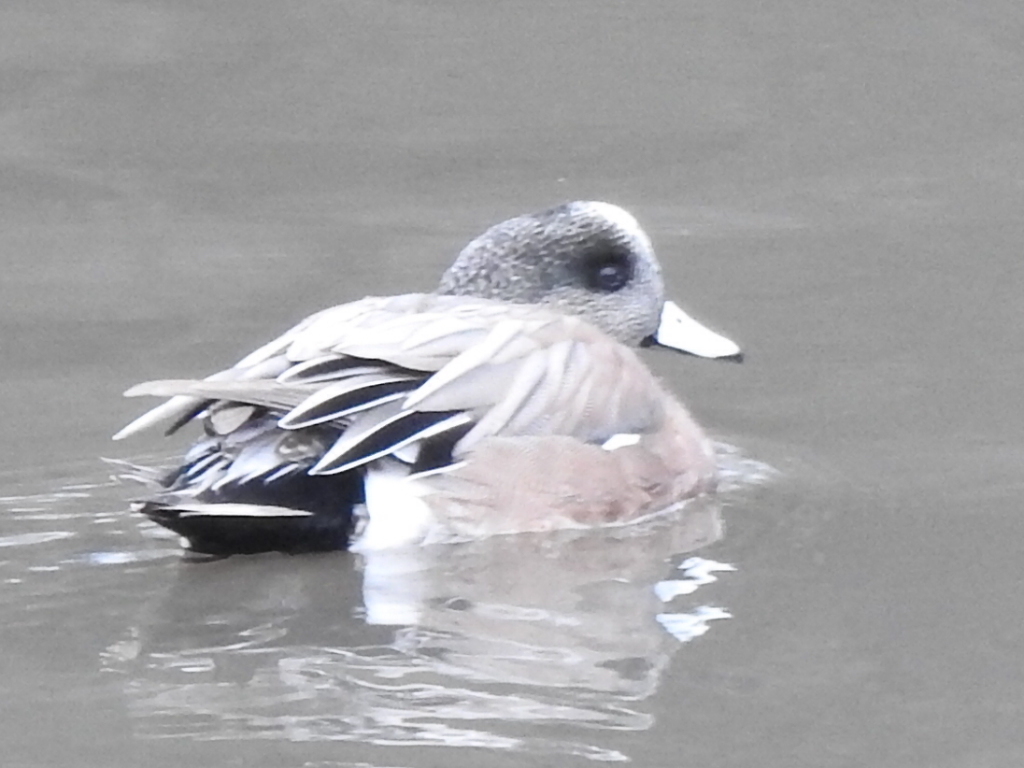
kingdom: Animalia
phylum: Chordata
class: Aves
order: Anseriformes
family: Anatidae
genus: Mareca
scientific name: Mareca americana
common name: American wigeon
